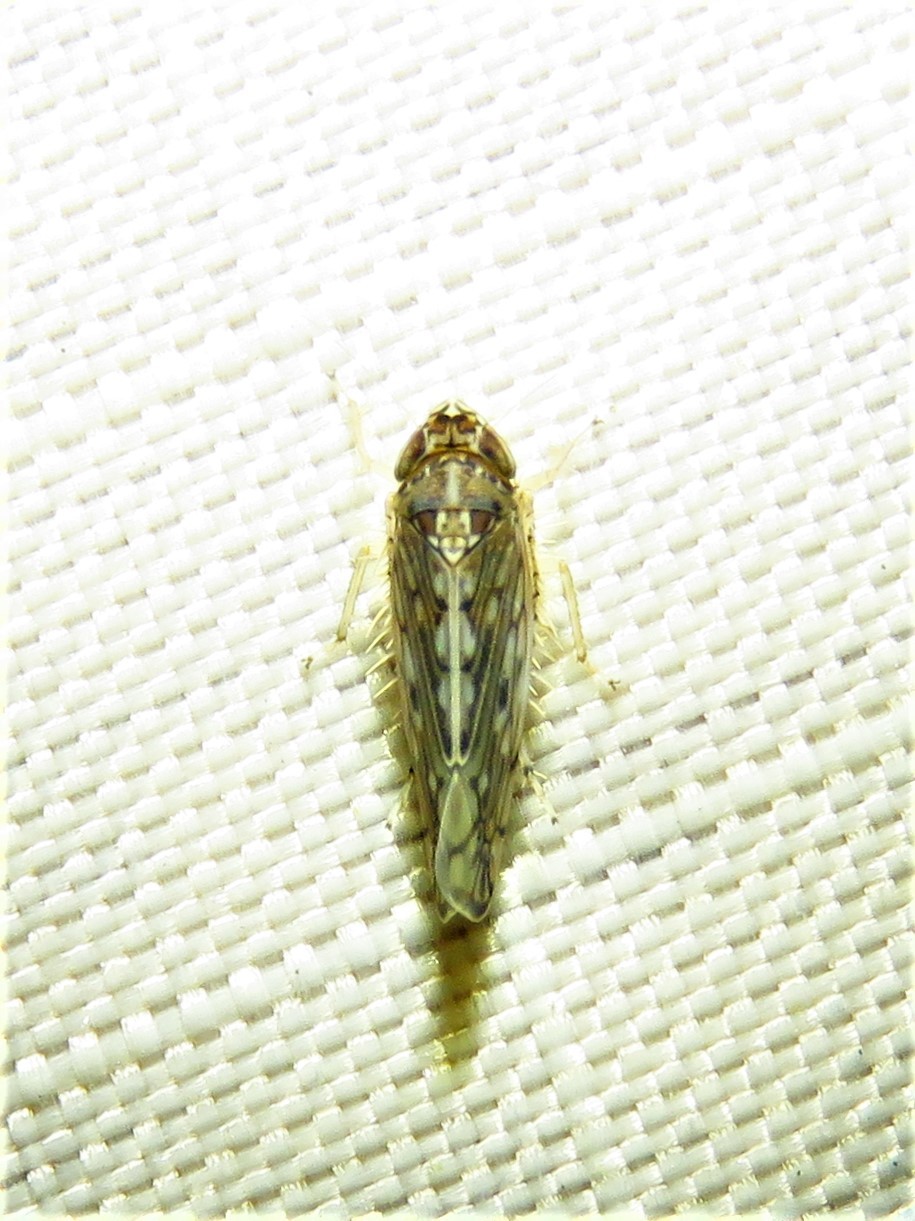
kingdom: Animalia
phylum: Arthropoda
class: Insecta
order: Hemiptera
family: Cicadellidae
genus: Osbornellus
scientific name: Osbornellus clarus
